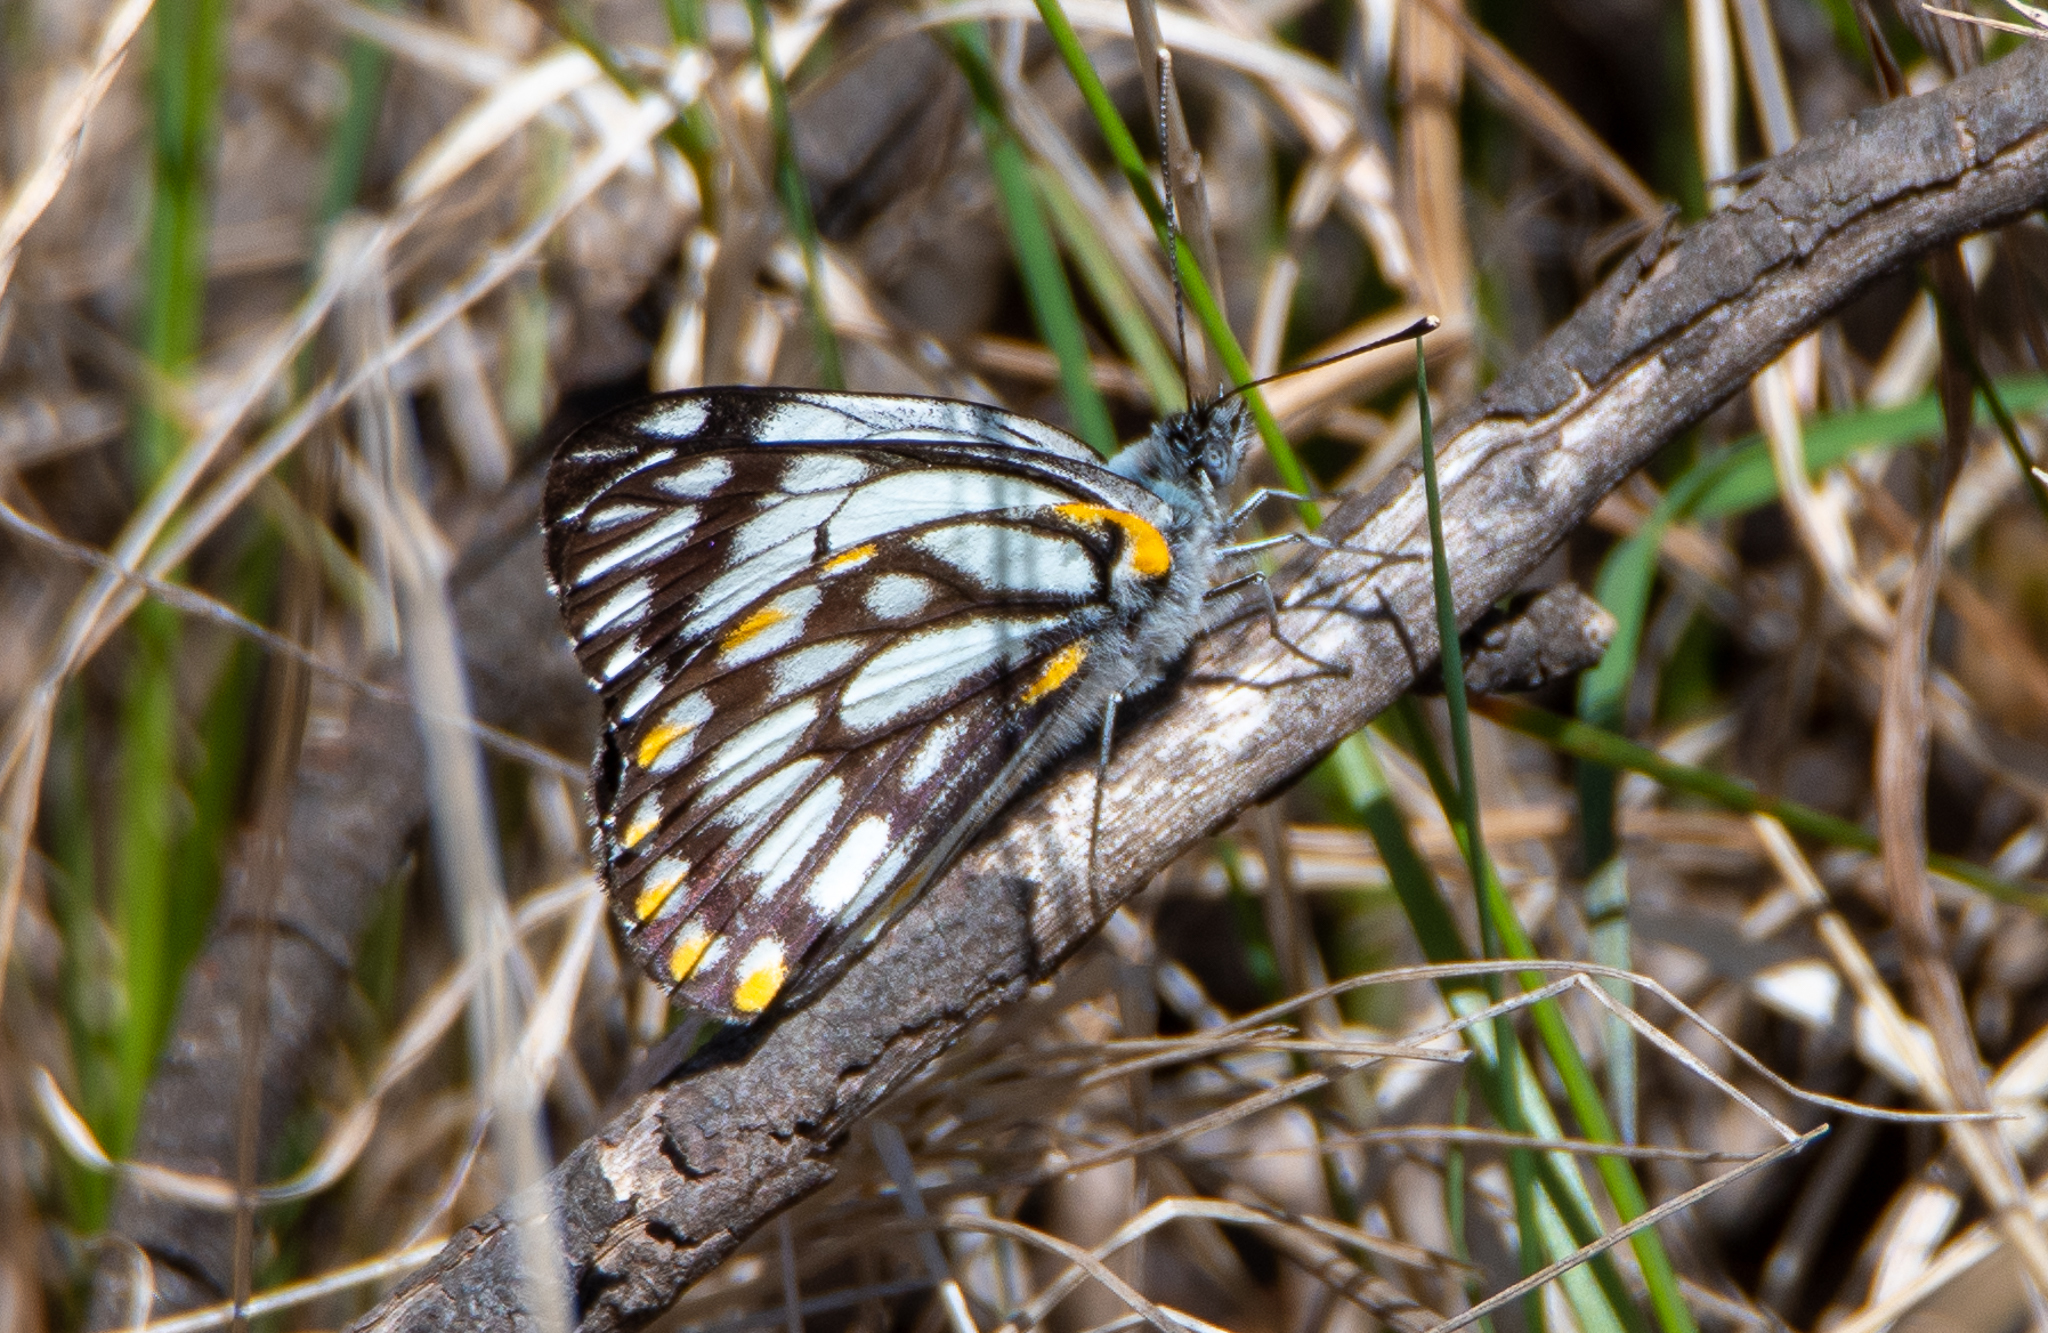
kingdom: Animalia
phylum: Arthropoda
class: Insecta
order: Lepidoptera
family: Pieridae
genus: Belenois
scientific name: Belenois java
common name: Caper white
